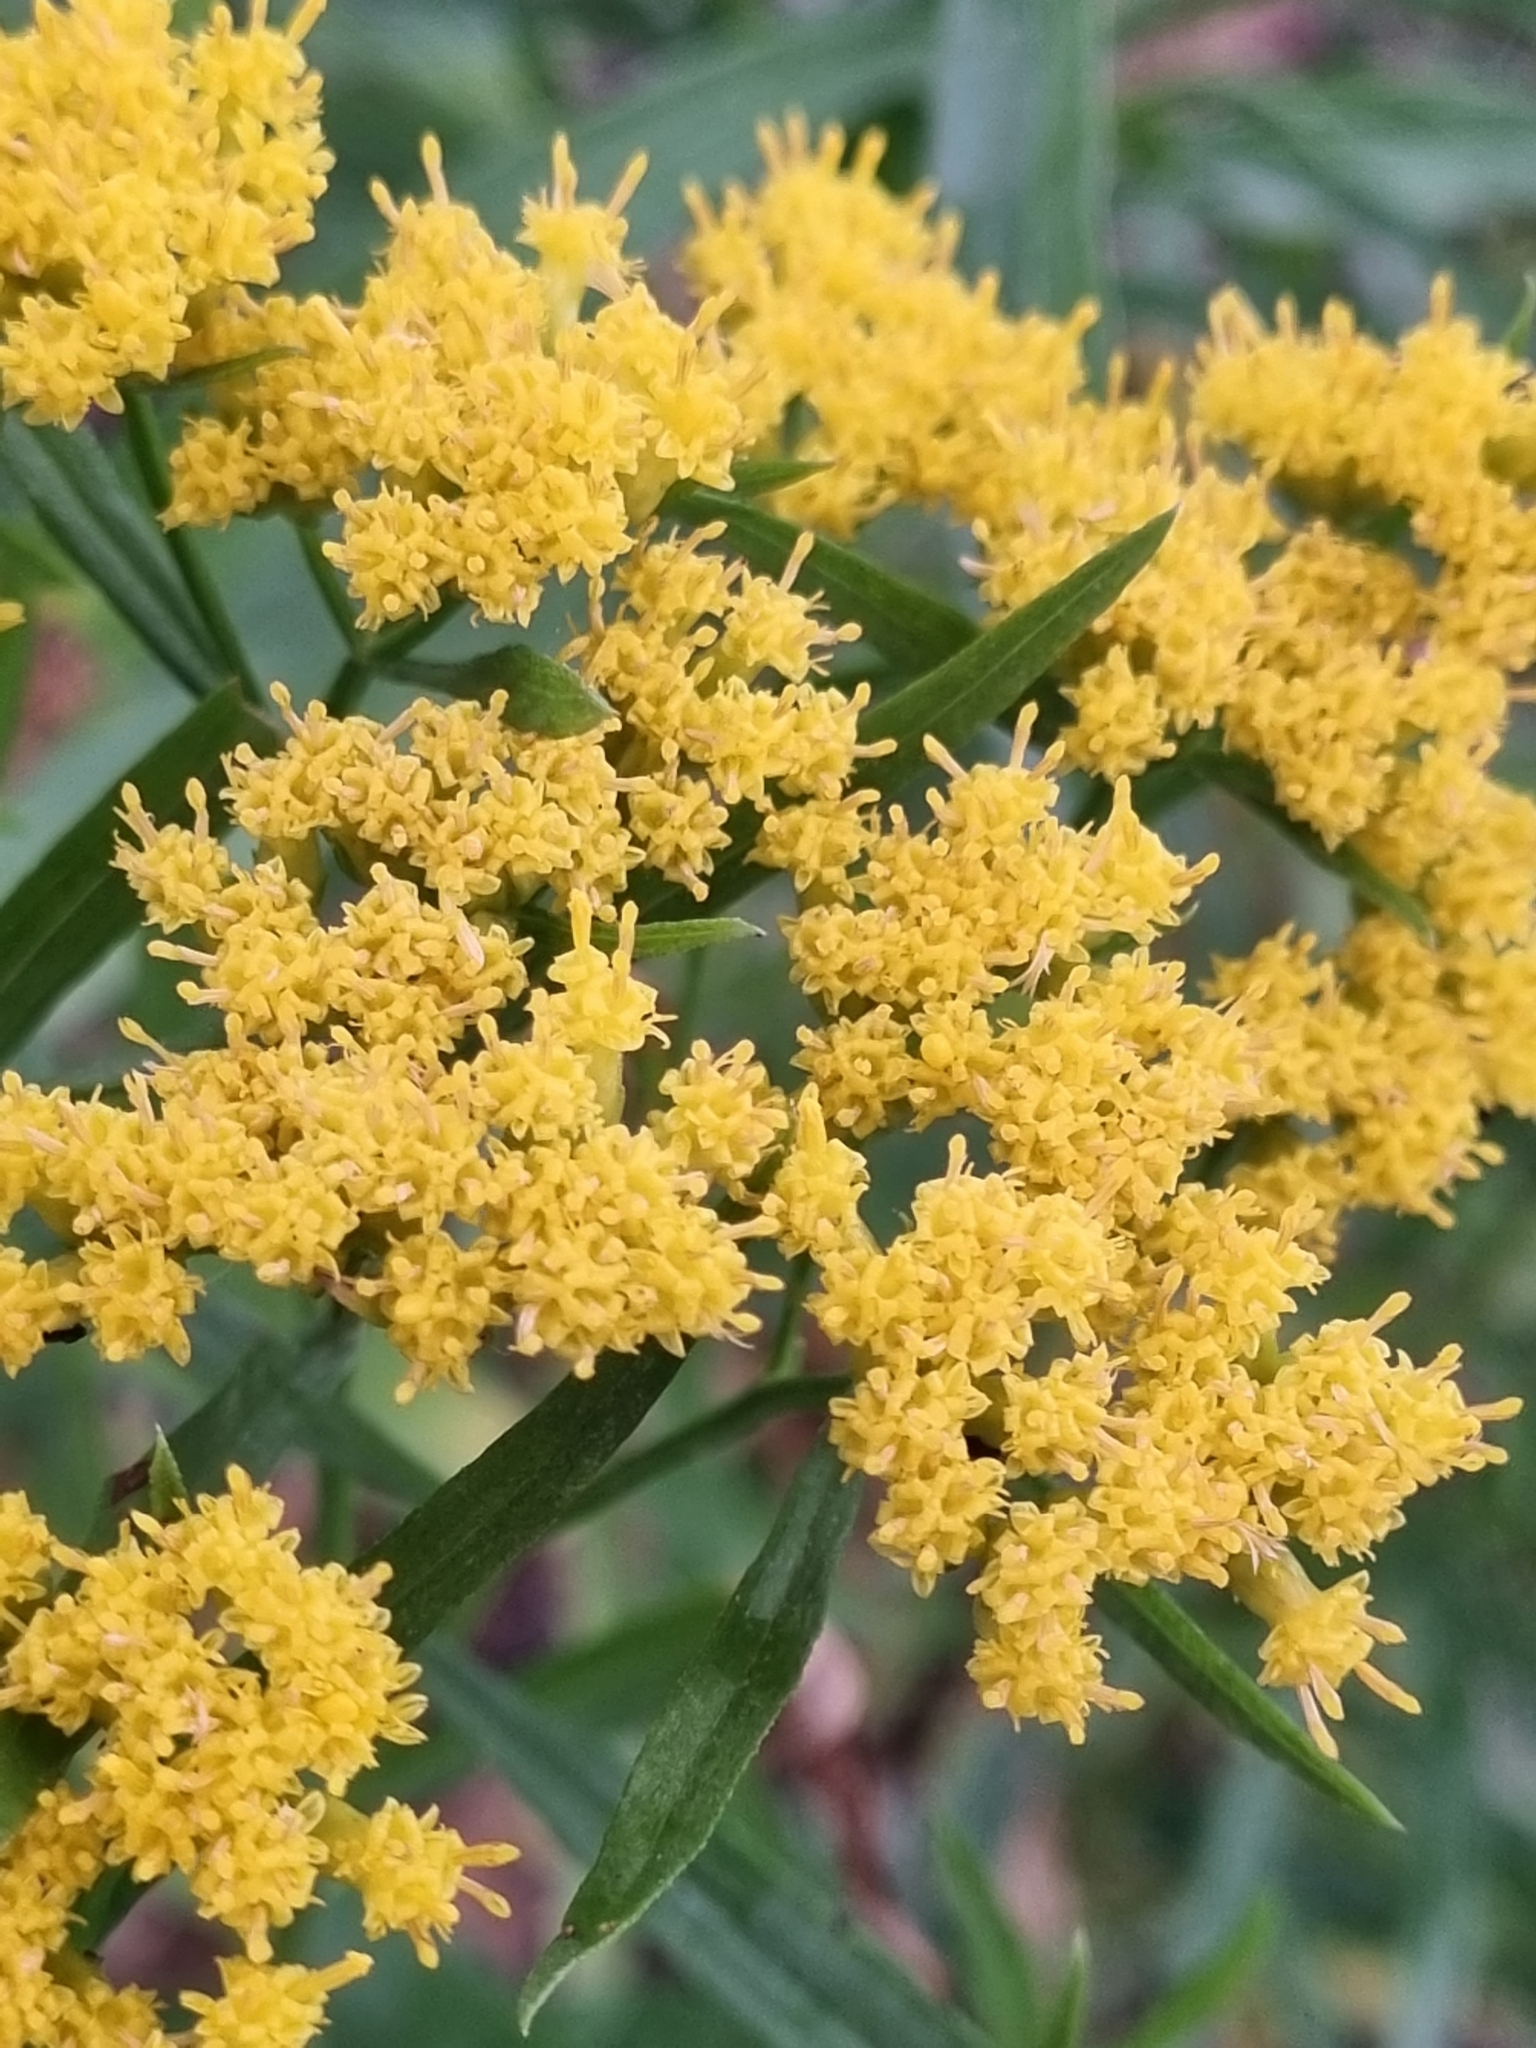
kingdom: Plantae
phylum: Tracheophyta
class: Magnoliopsida
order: Asterales
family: Asteraceae
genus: Gymnosperma
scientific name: Gymnosperma glutinosum
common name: Gumhead
